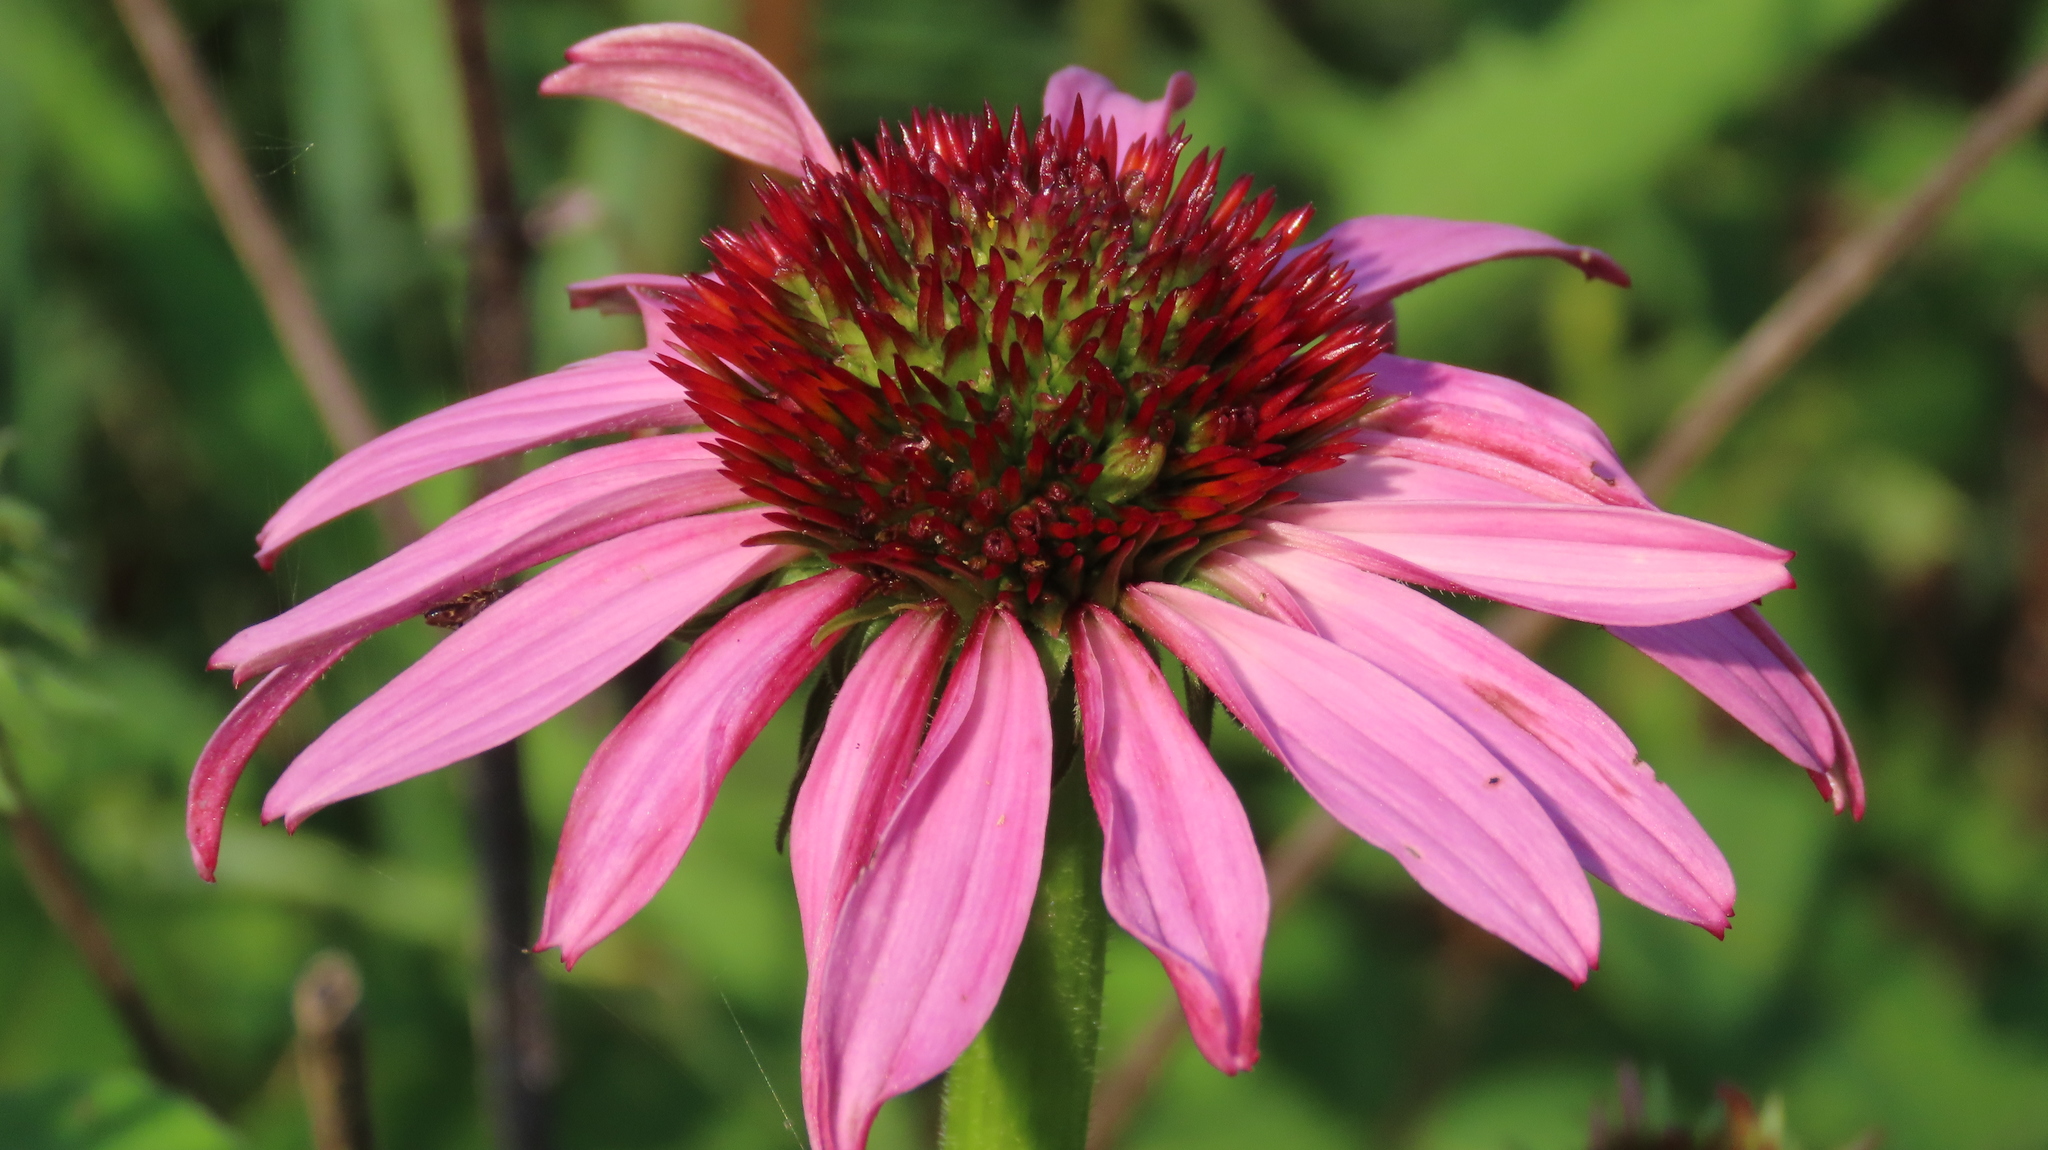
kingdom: Plantae
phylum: Tracheophyta
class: Magnoliopsida
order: Asterales
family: Asteraceae
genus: Echinacea
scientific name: Echinacea purpurea
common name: Broad-leaved purple coneflower
